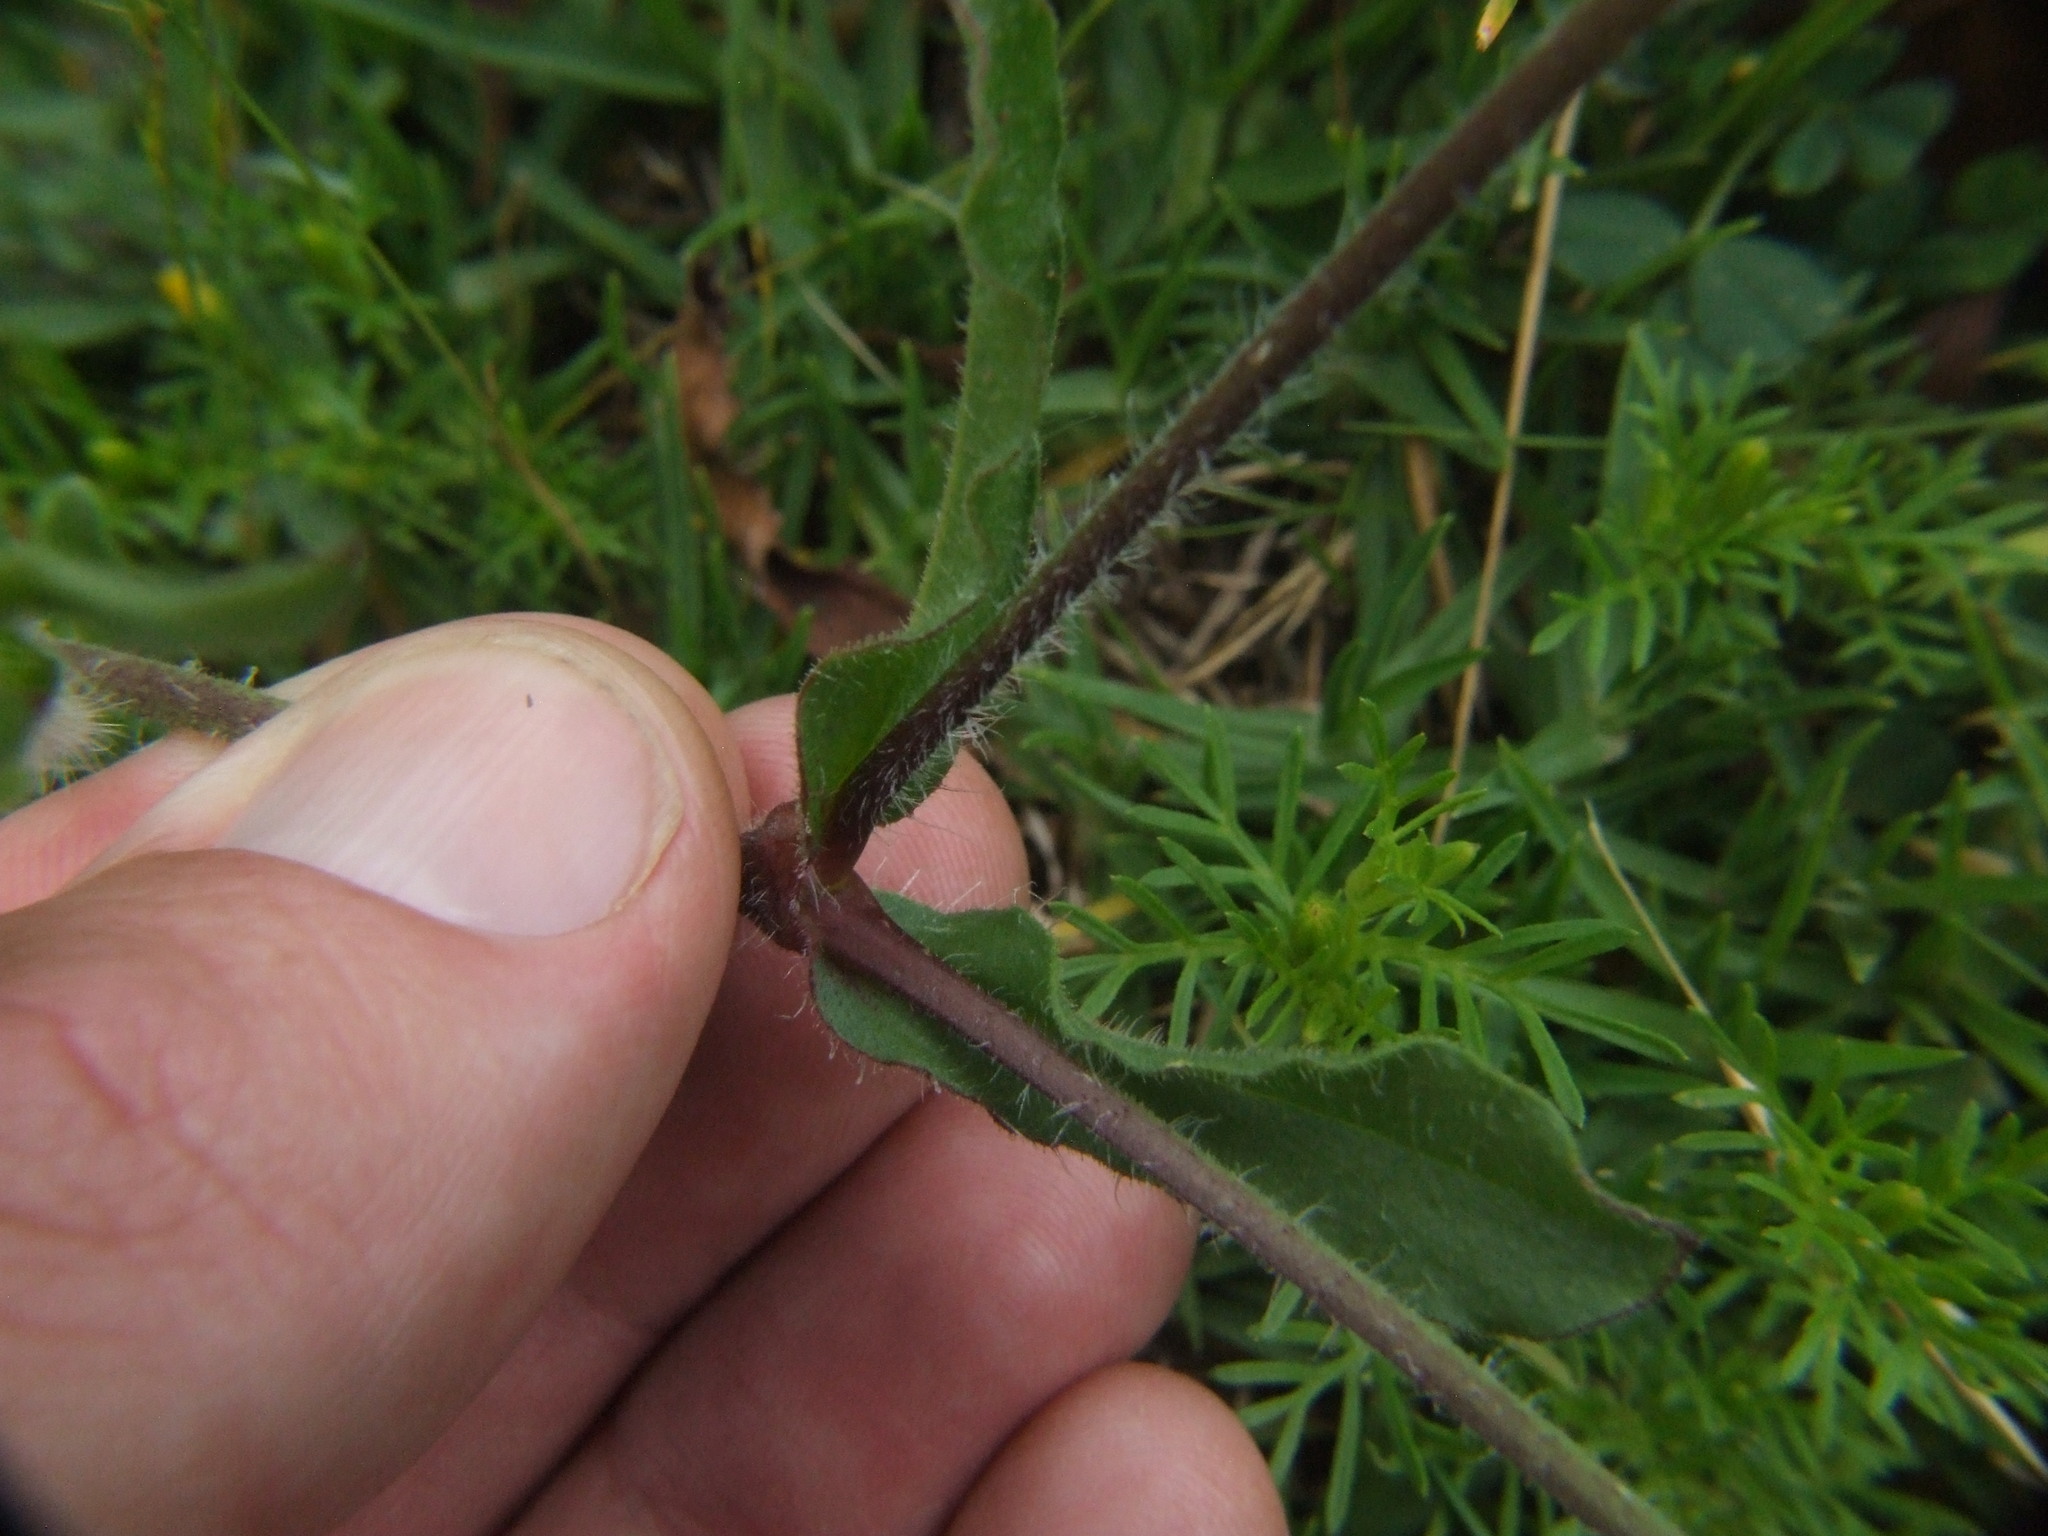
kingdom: Plantae
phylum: Tracheophyta
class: Magnoliopsida
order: Caryophyllales
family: Caryophyllaceae
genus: Silene
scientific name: Silene gallica
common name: Small-flowered catchfly
